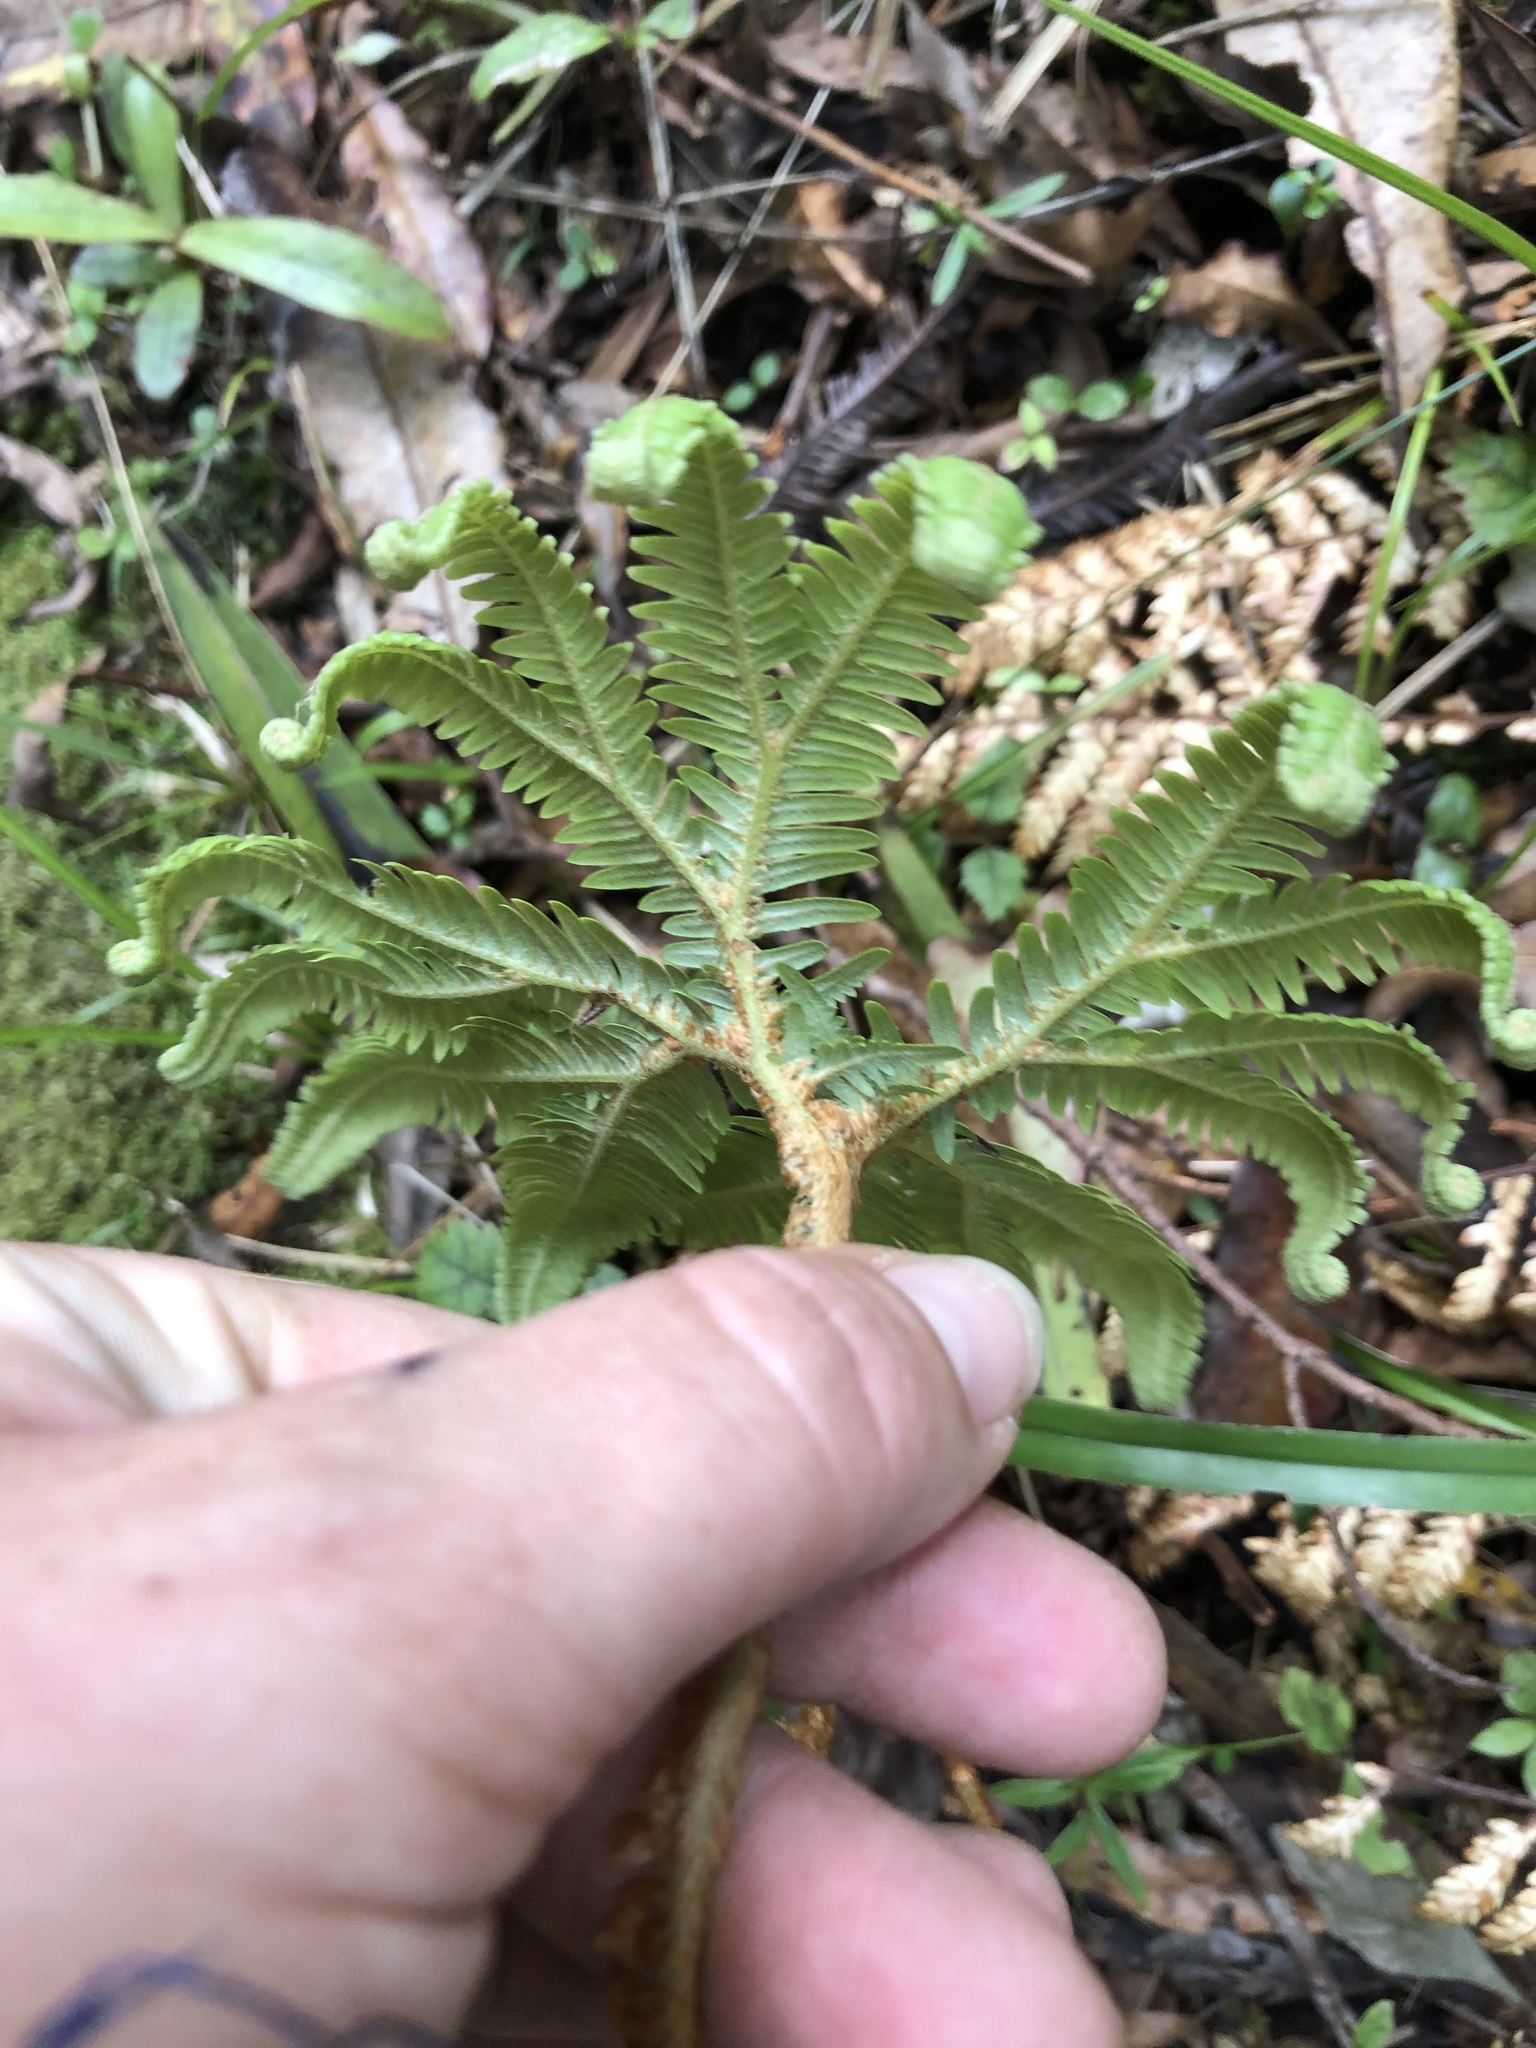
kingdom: Plantae
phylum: Tracheophyta
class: Polypodiopsida
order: Gleicheniales
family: Gleicheniaceae
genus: Sticherus
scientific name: Sticherus cunninghamii
